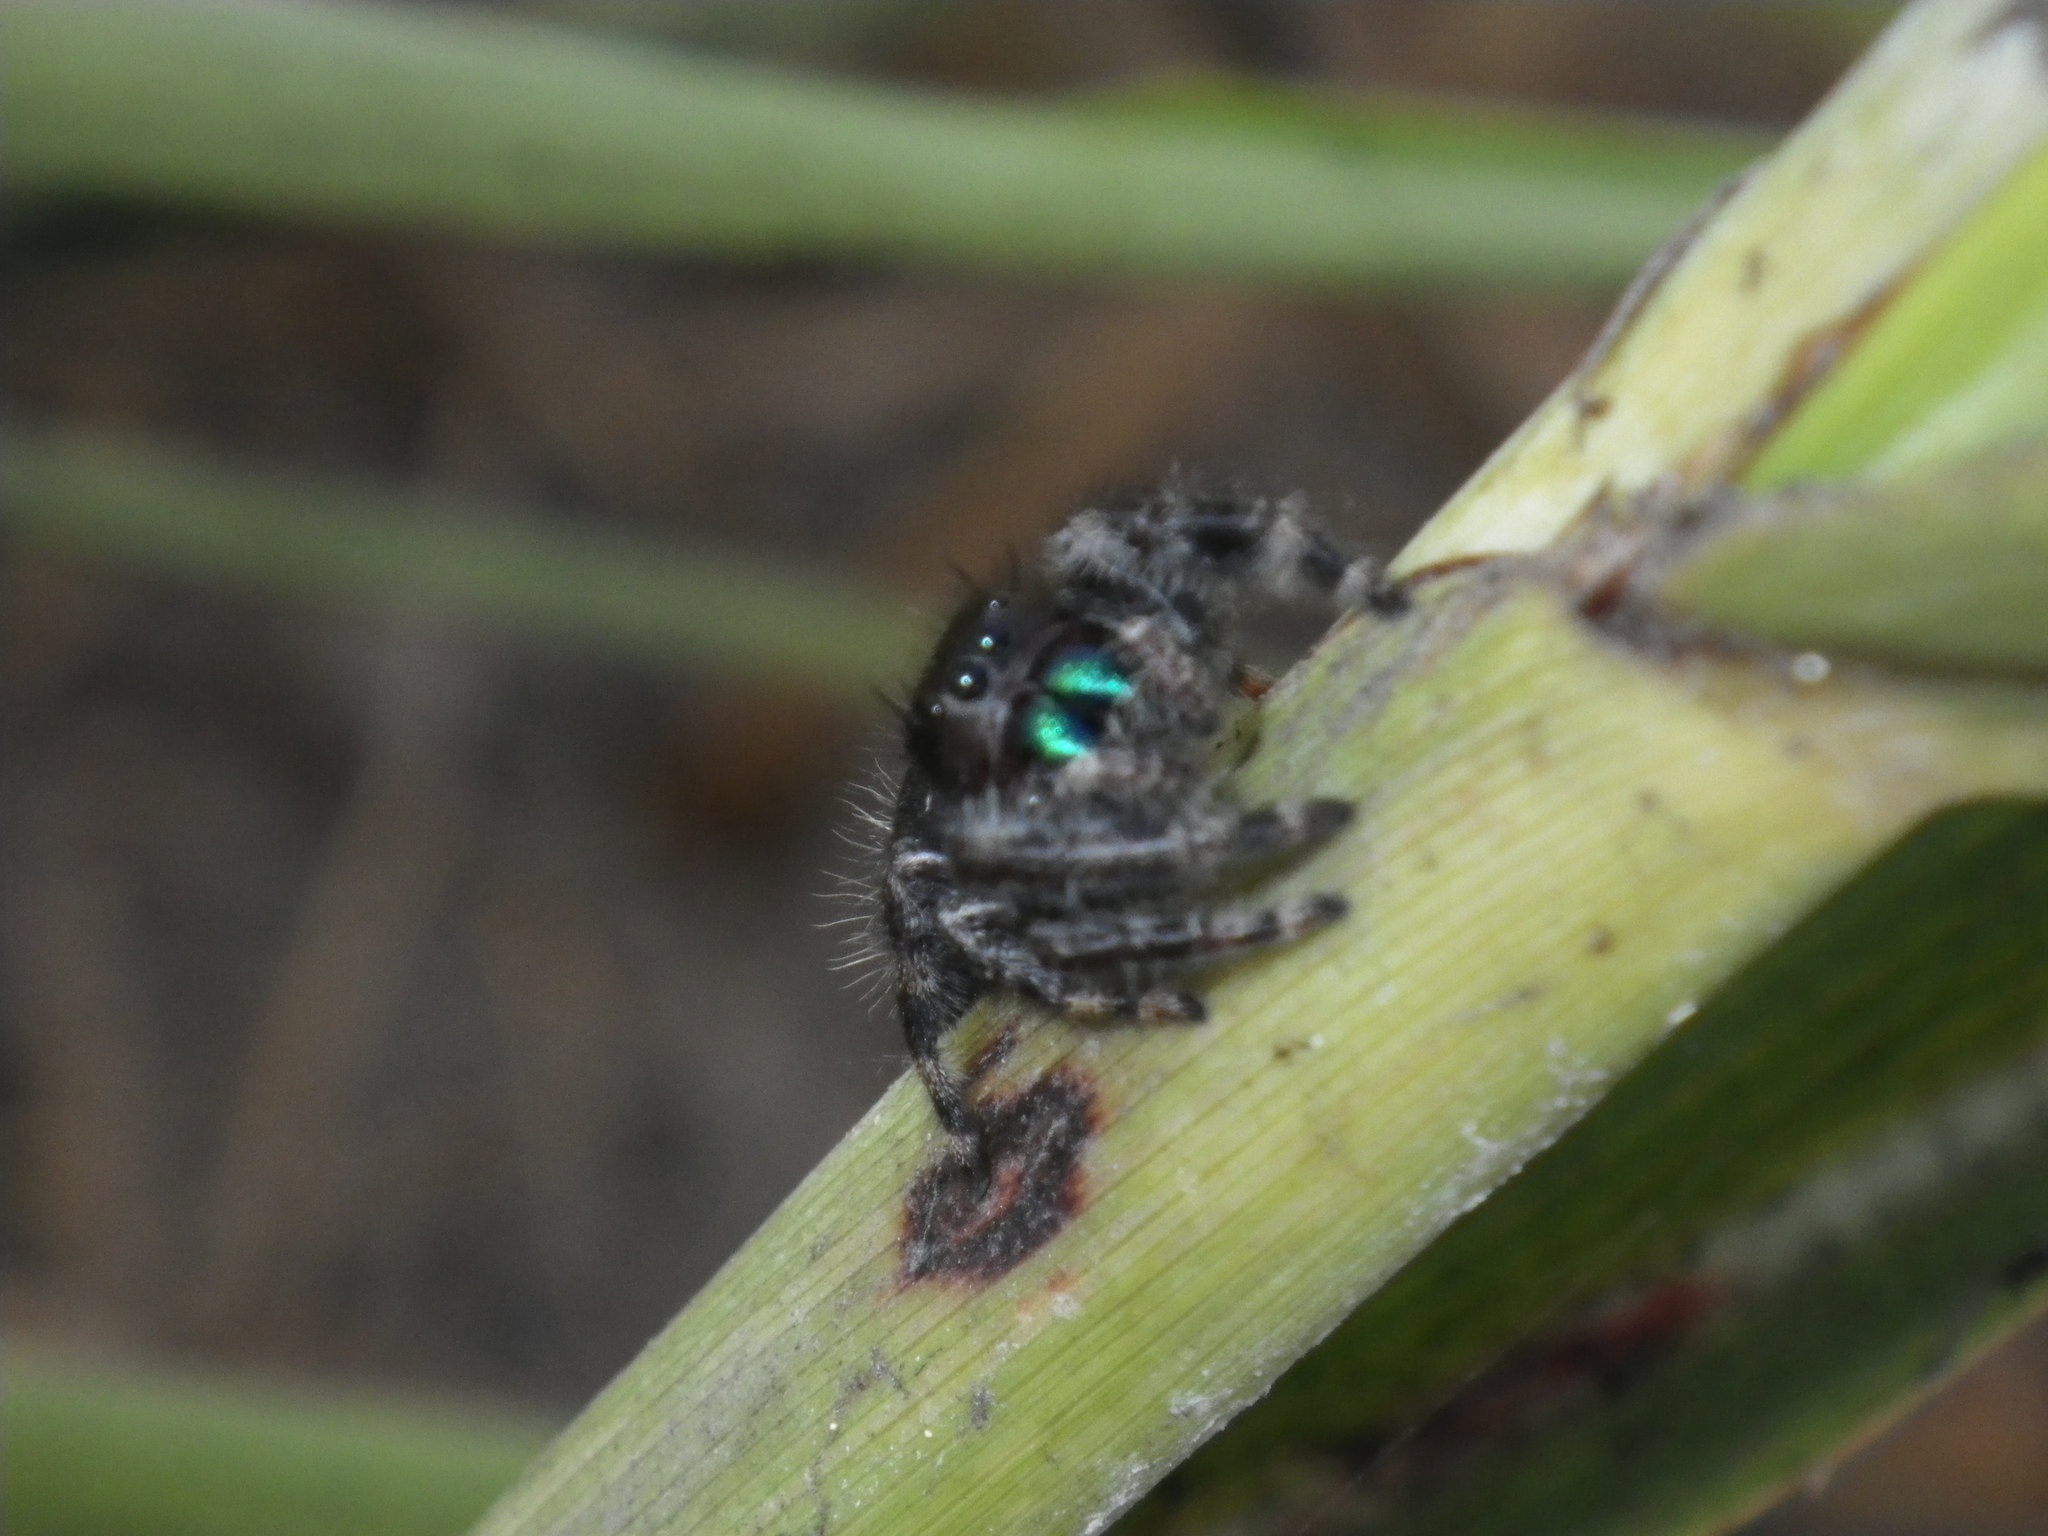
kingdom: Animalia
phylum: Arthropoda
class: Arachnida
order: Araneae
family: Salticidae
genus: Phidippus
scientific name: Phidippus audax
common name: Bold jumper
